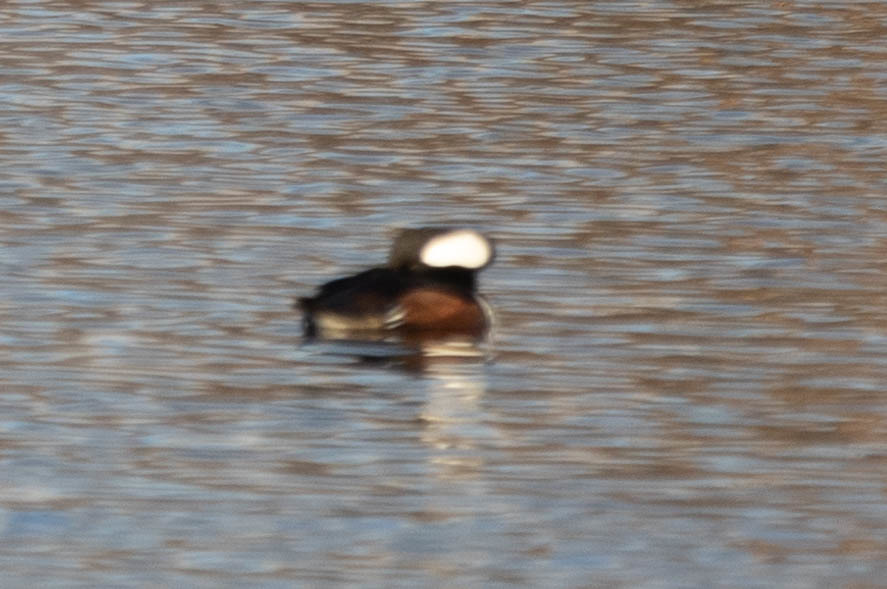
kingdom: Animalia
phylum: Chordata
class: Aves
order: Anseriformes
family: Anatidae
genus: Lophodytes
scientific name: Lophodytes cucullatus
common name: Hooded merganser
